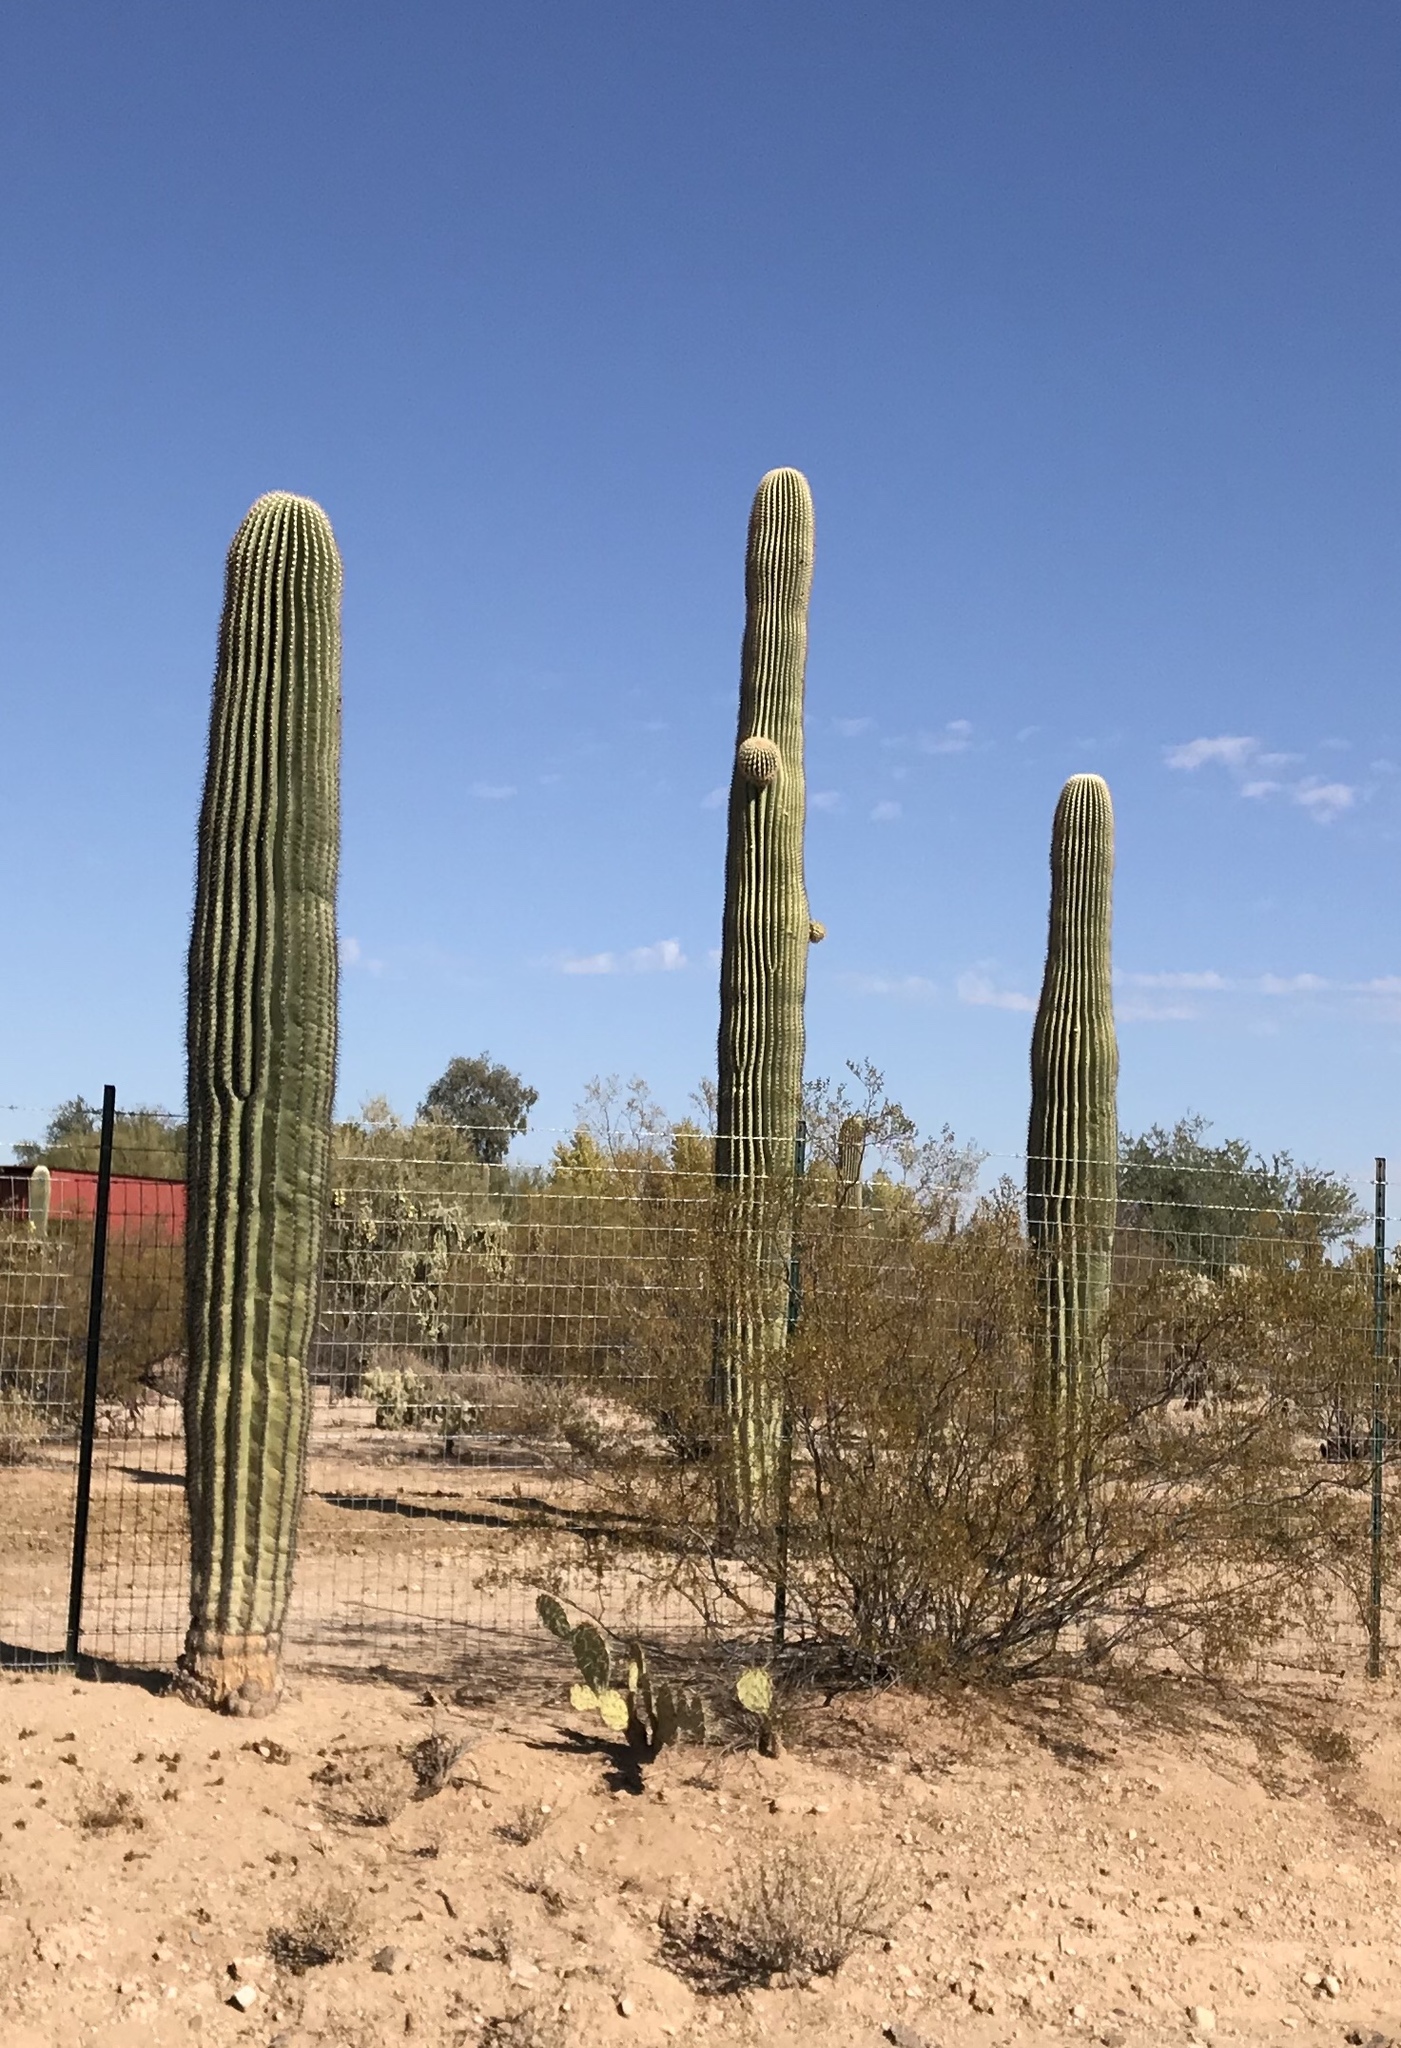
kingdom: Plantae
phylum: Tracheophyta
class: Magnoliopsida
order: Caryophyllales
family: Cactaceae
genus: Carnegiea
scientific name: Carnegiea gigantea
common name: Saguaro
